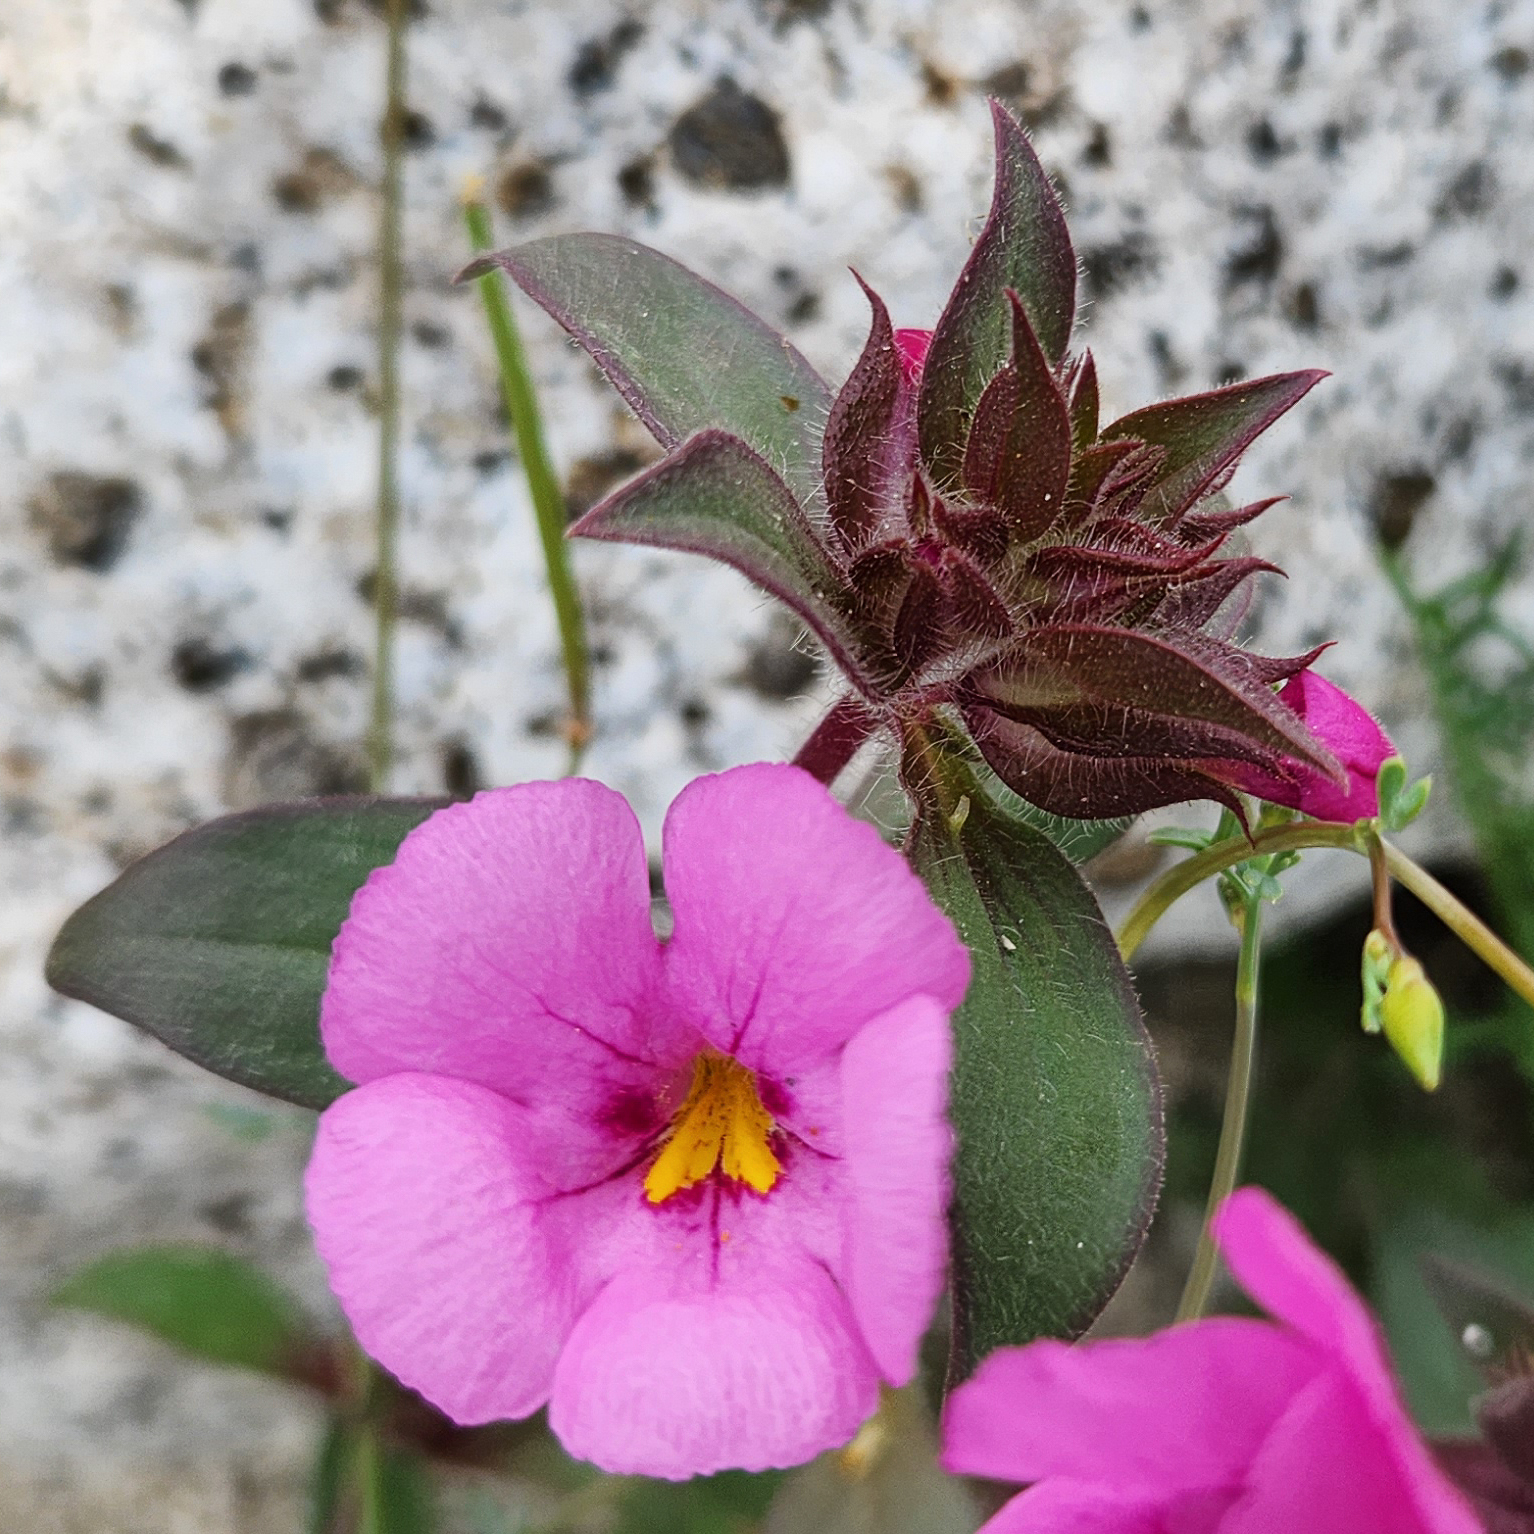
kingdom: Plantae
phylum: Tracheophyta
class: Magnoliopsida
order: Lamiales
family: Phrymaceae
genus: Diplacus
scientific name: Diplacus bigelovii
